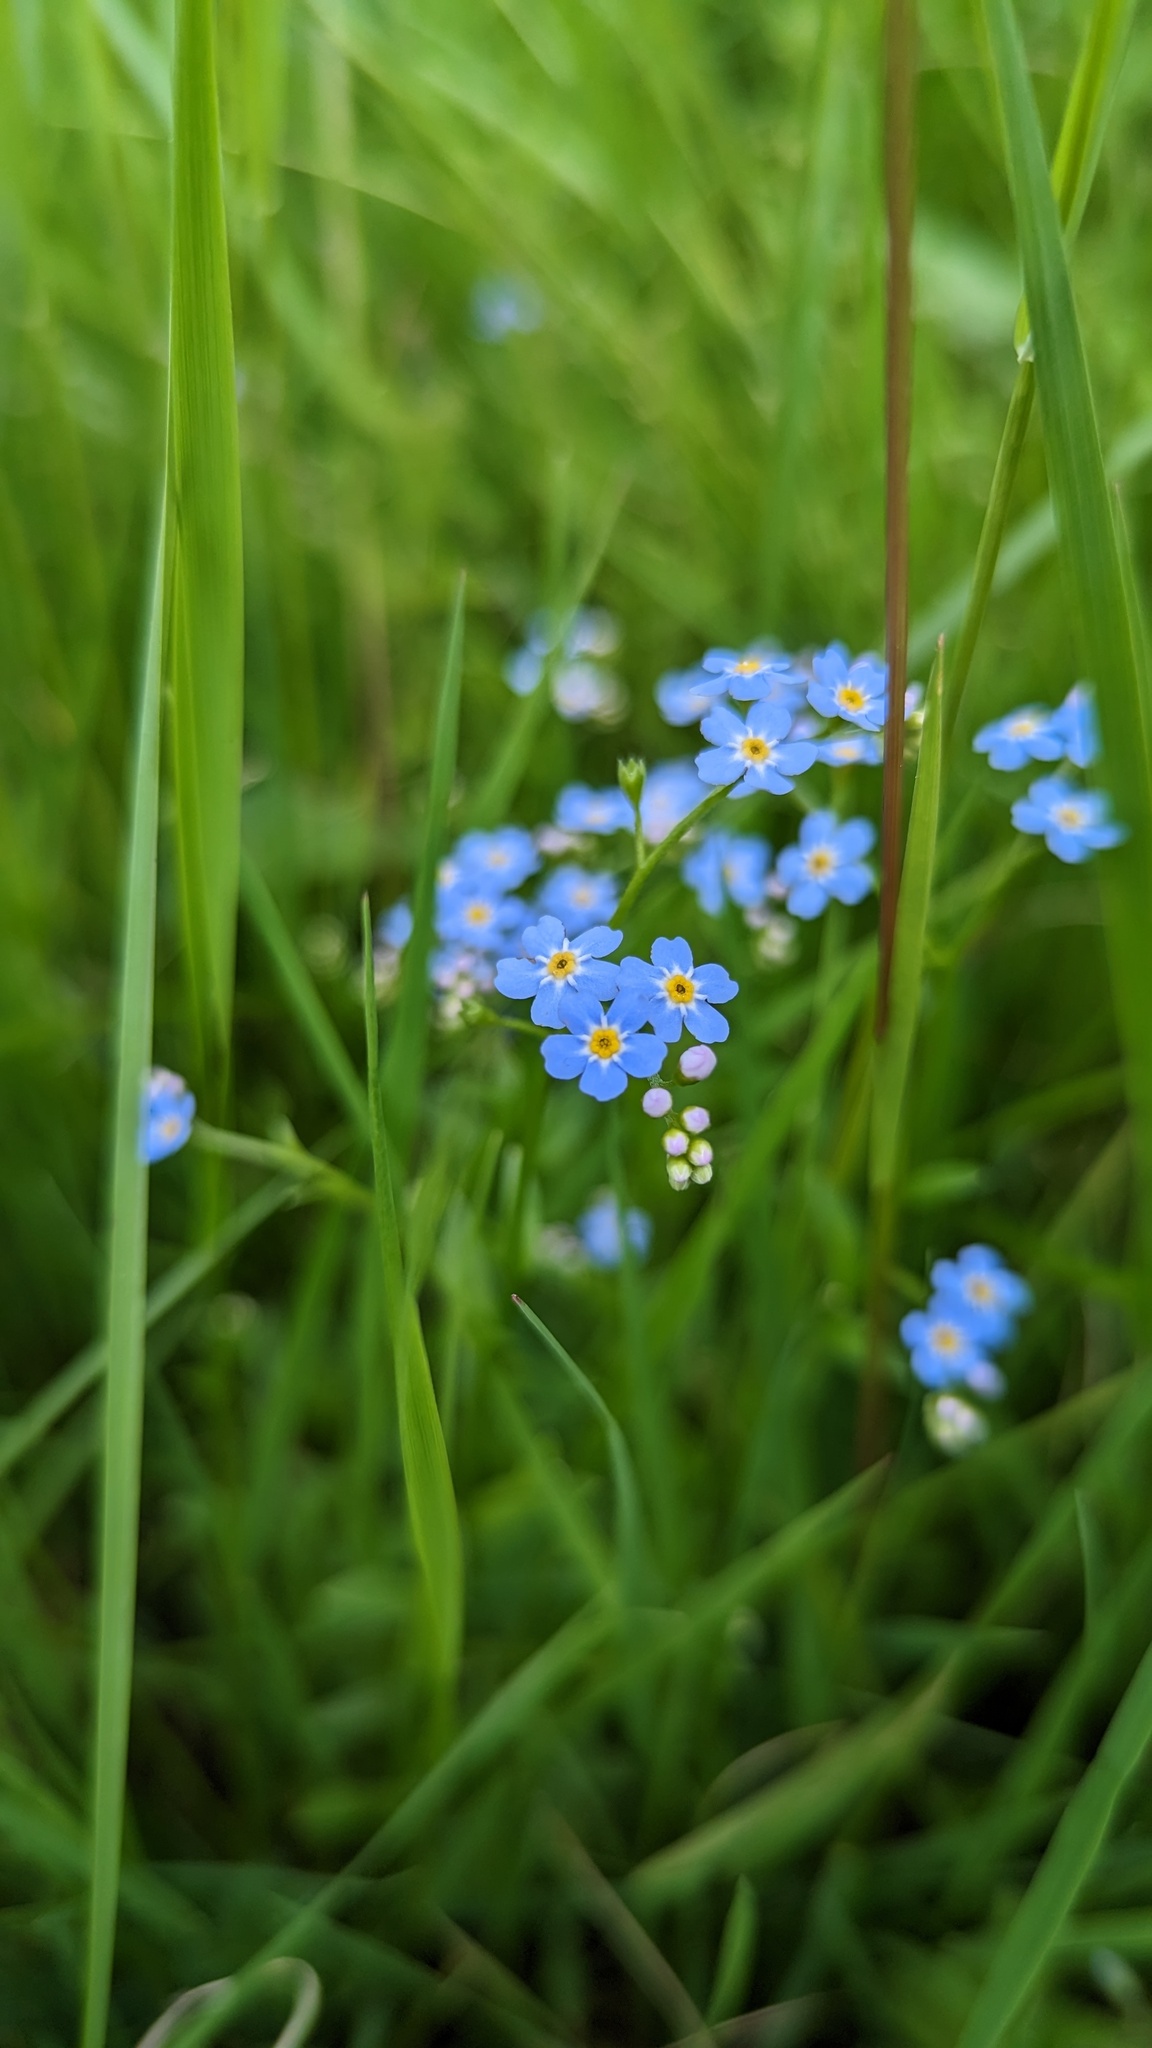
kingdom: Plantae
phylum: Tracheophyta
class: Magnoliopsida
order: Boraginales
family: Boraginaceae
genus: Myosotis
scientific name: Myosotis scorpioides
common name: Water forget-me-not
